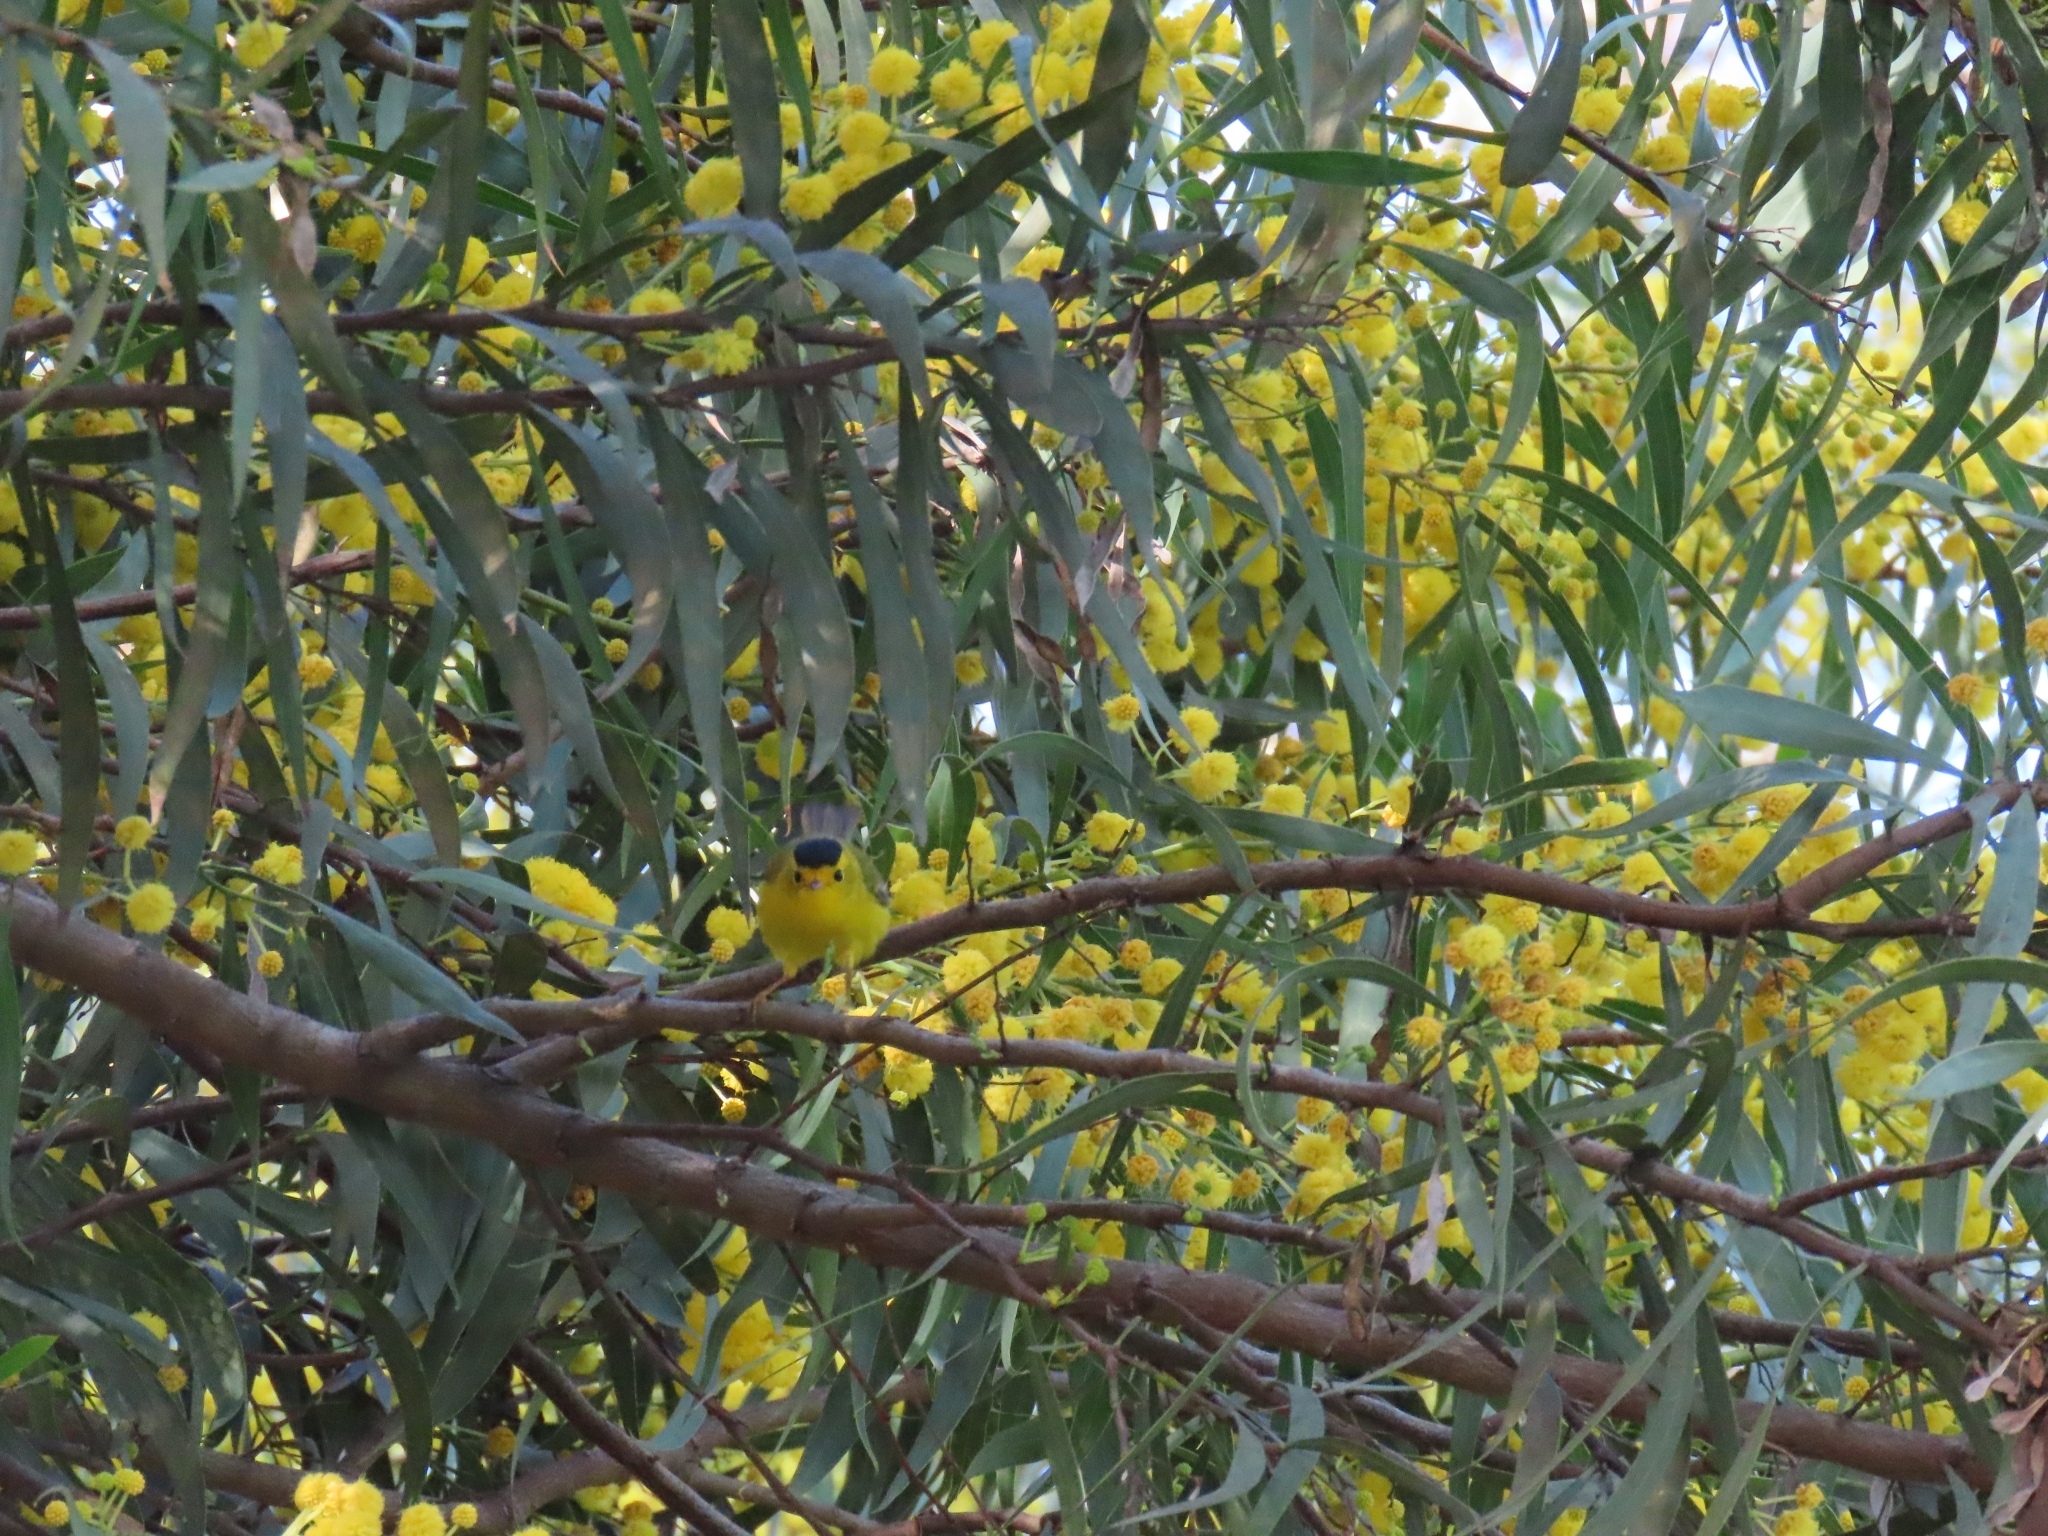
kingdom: Animalia
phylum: Chordata
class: Aves
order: Passeriformes
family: Parulidae
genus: Cardellina
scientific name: Cardellina pusilla
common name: Wilson's warbler
